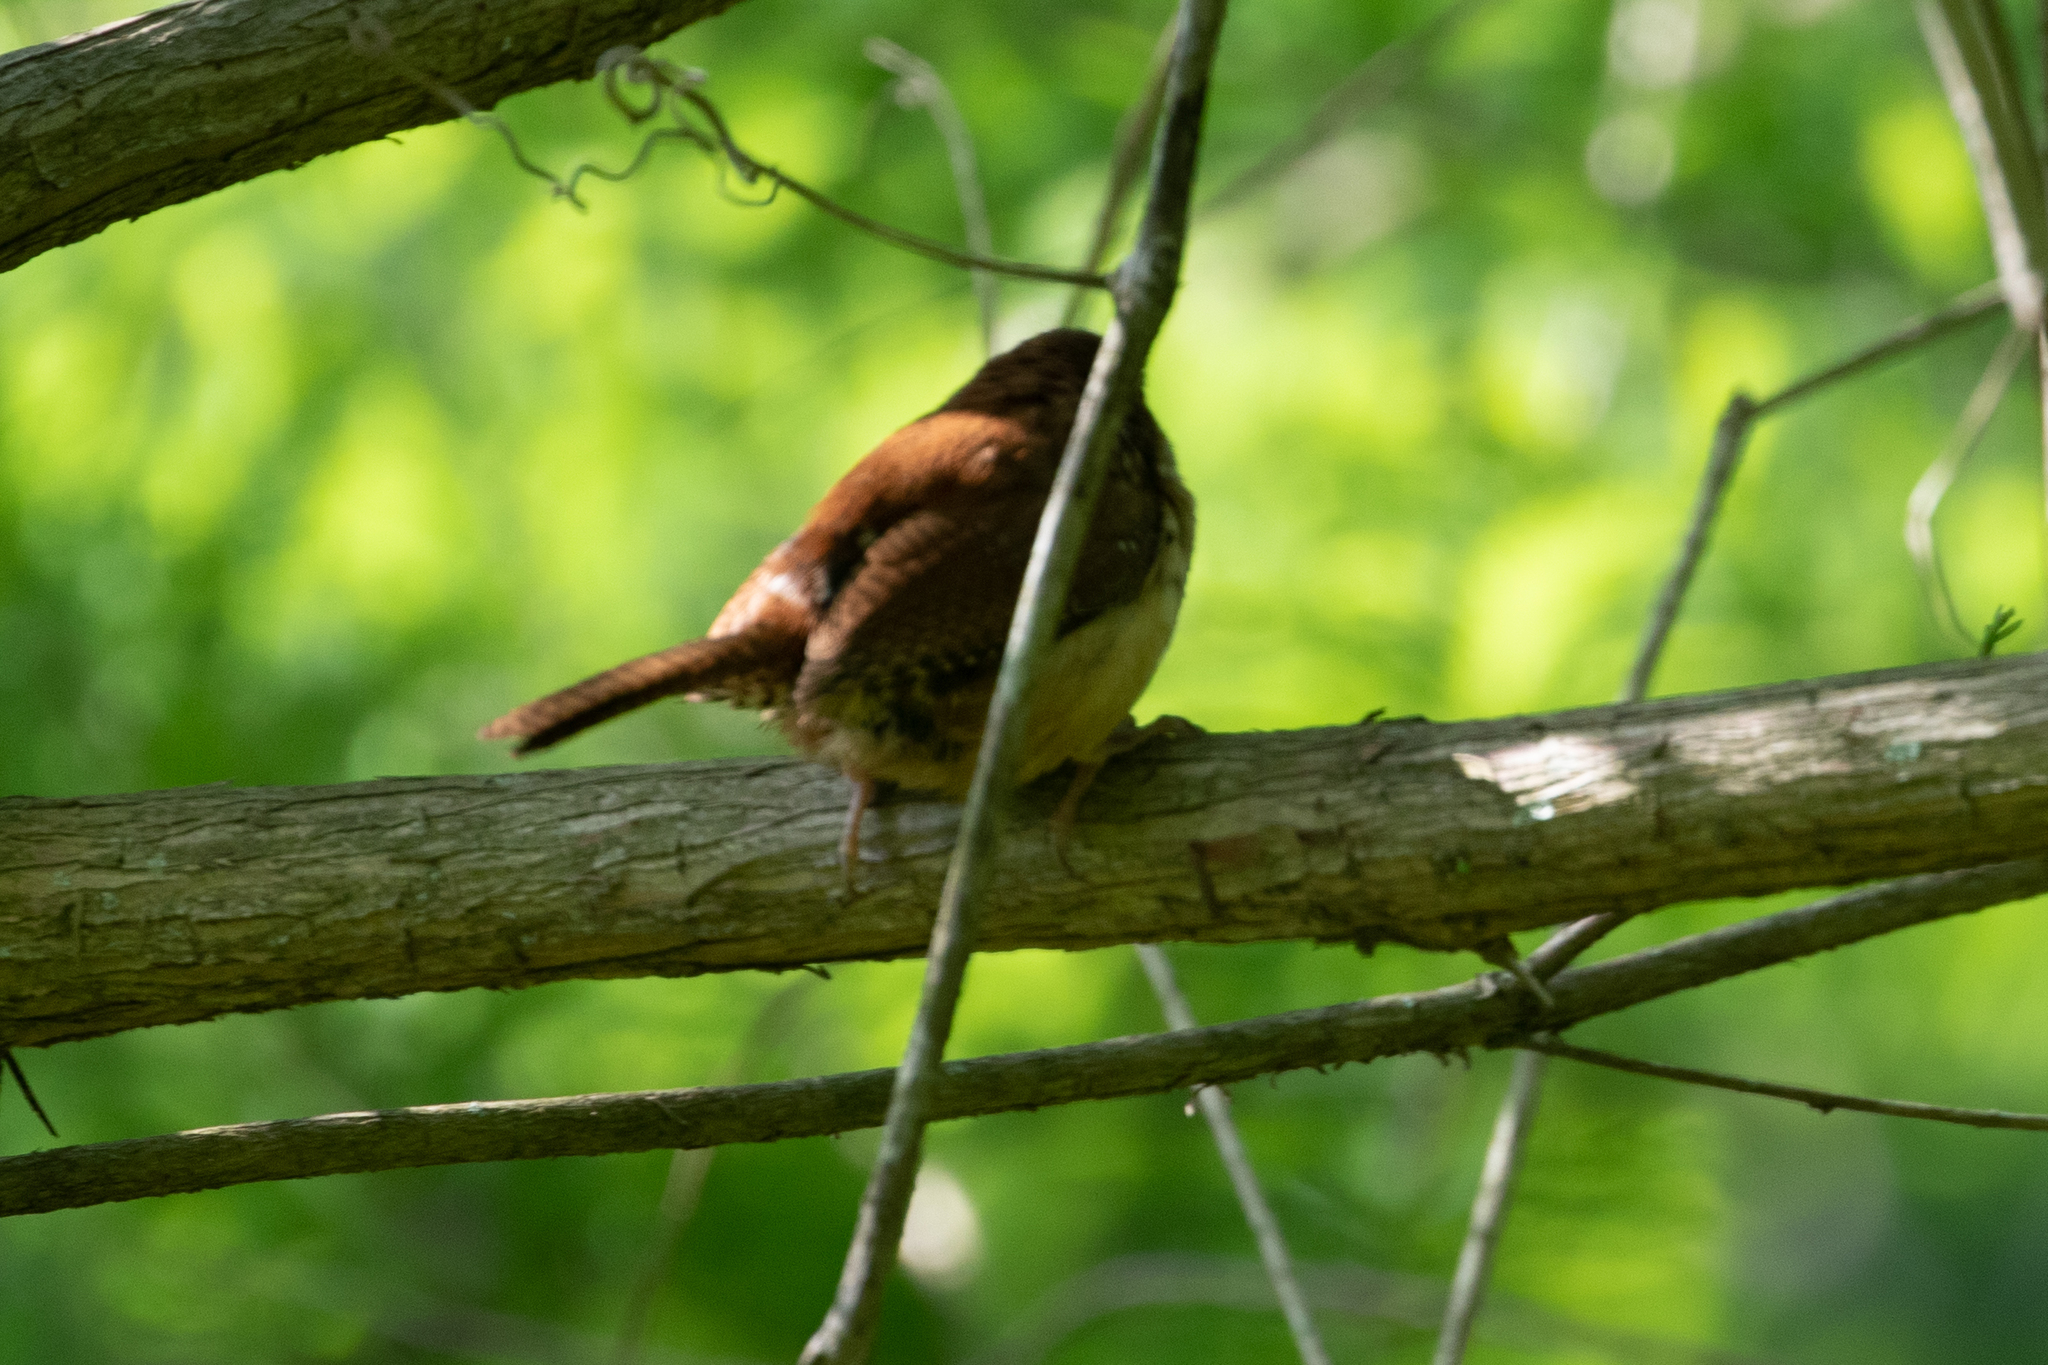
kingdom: Animalia
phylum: Chordata
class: Aves
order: Passeriformes
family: Troglodytidae
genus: Thryothorus
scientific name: Thryothorus ludovicianus
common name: Carolina wren
